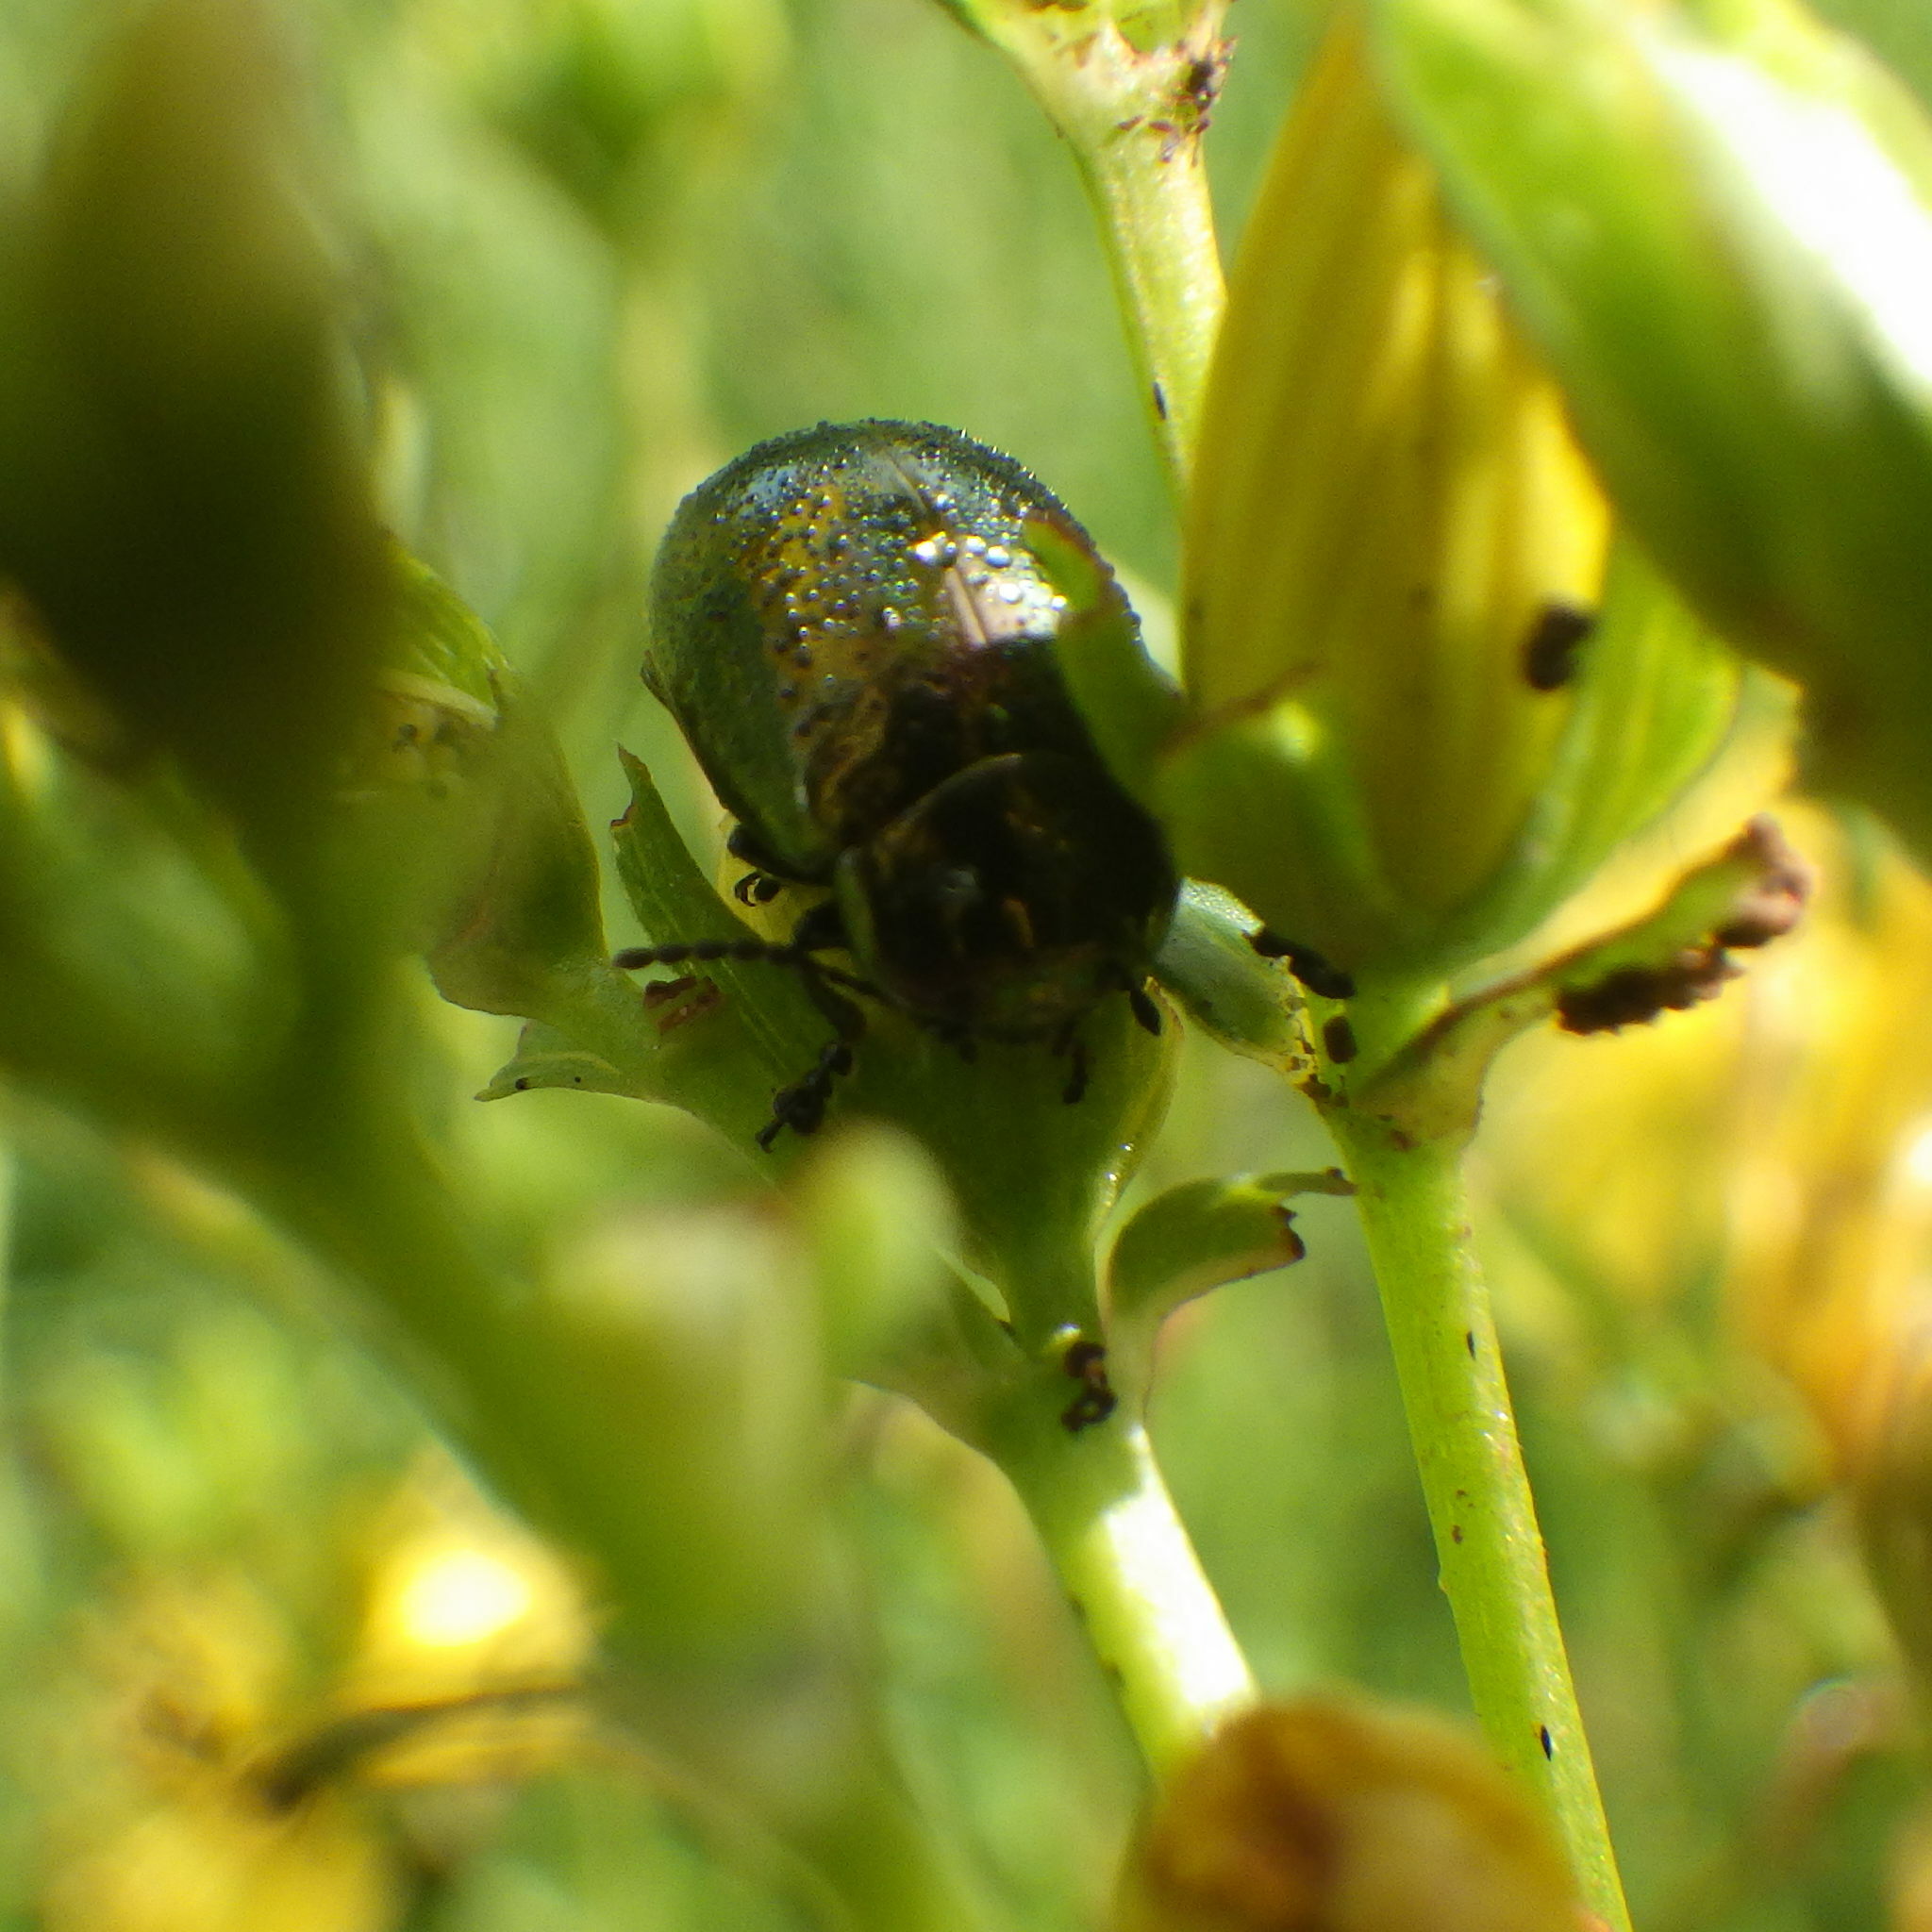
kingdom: Animalia
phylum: Arthropoda
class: Insecta
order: Coleoptera
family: Chrysomelidae
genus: Chrysolina
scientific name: Chrysolina hyperici
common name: St. johnswort beetle
